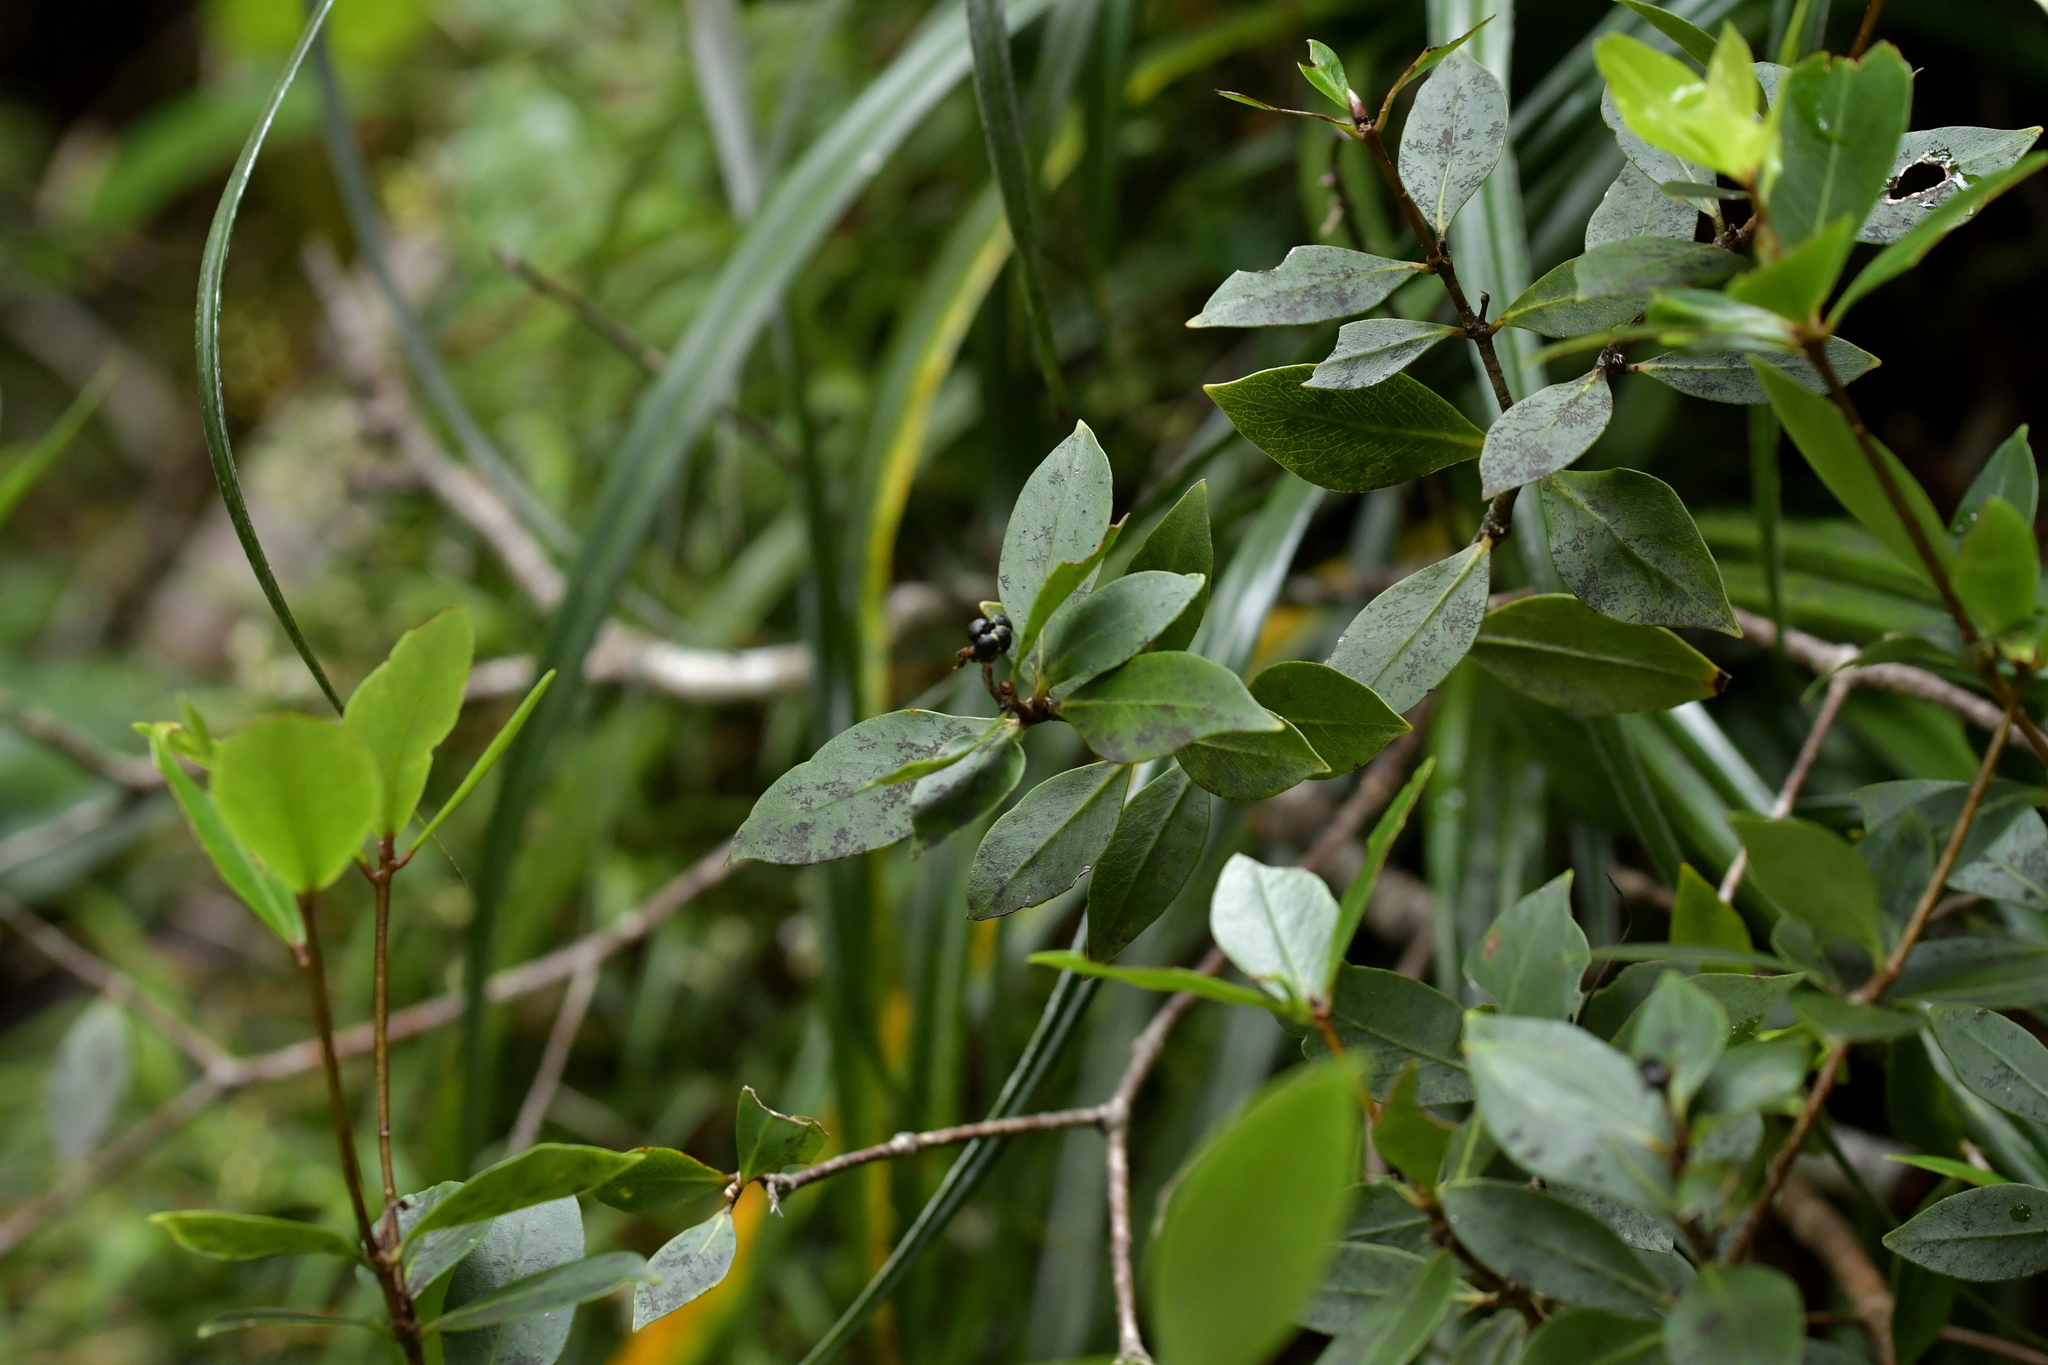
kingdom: Plantae
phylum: Tracheophyta
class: Magnoliopsida
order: Apiales
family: Pittosporaceae
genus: Pittosporum
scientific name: Pittosporum cornifolium
